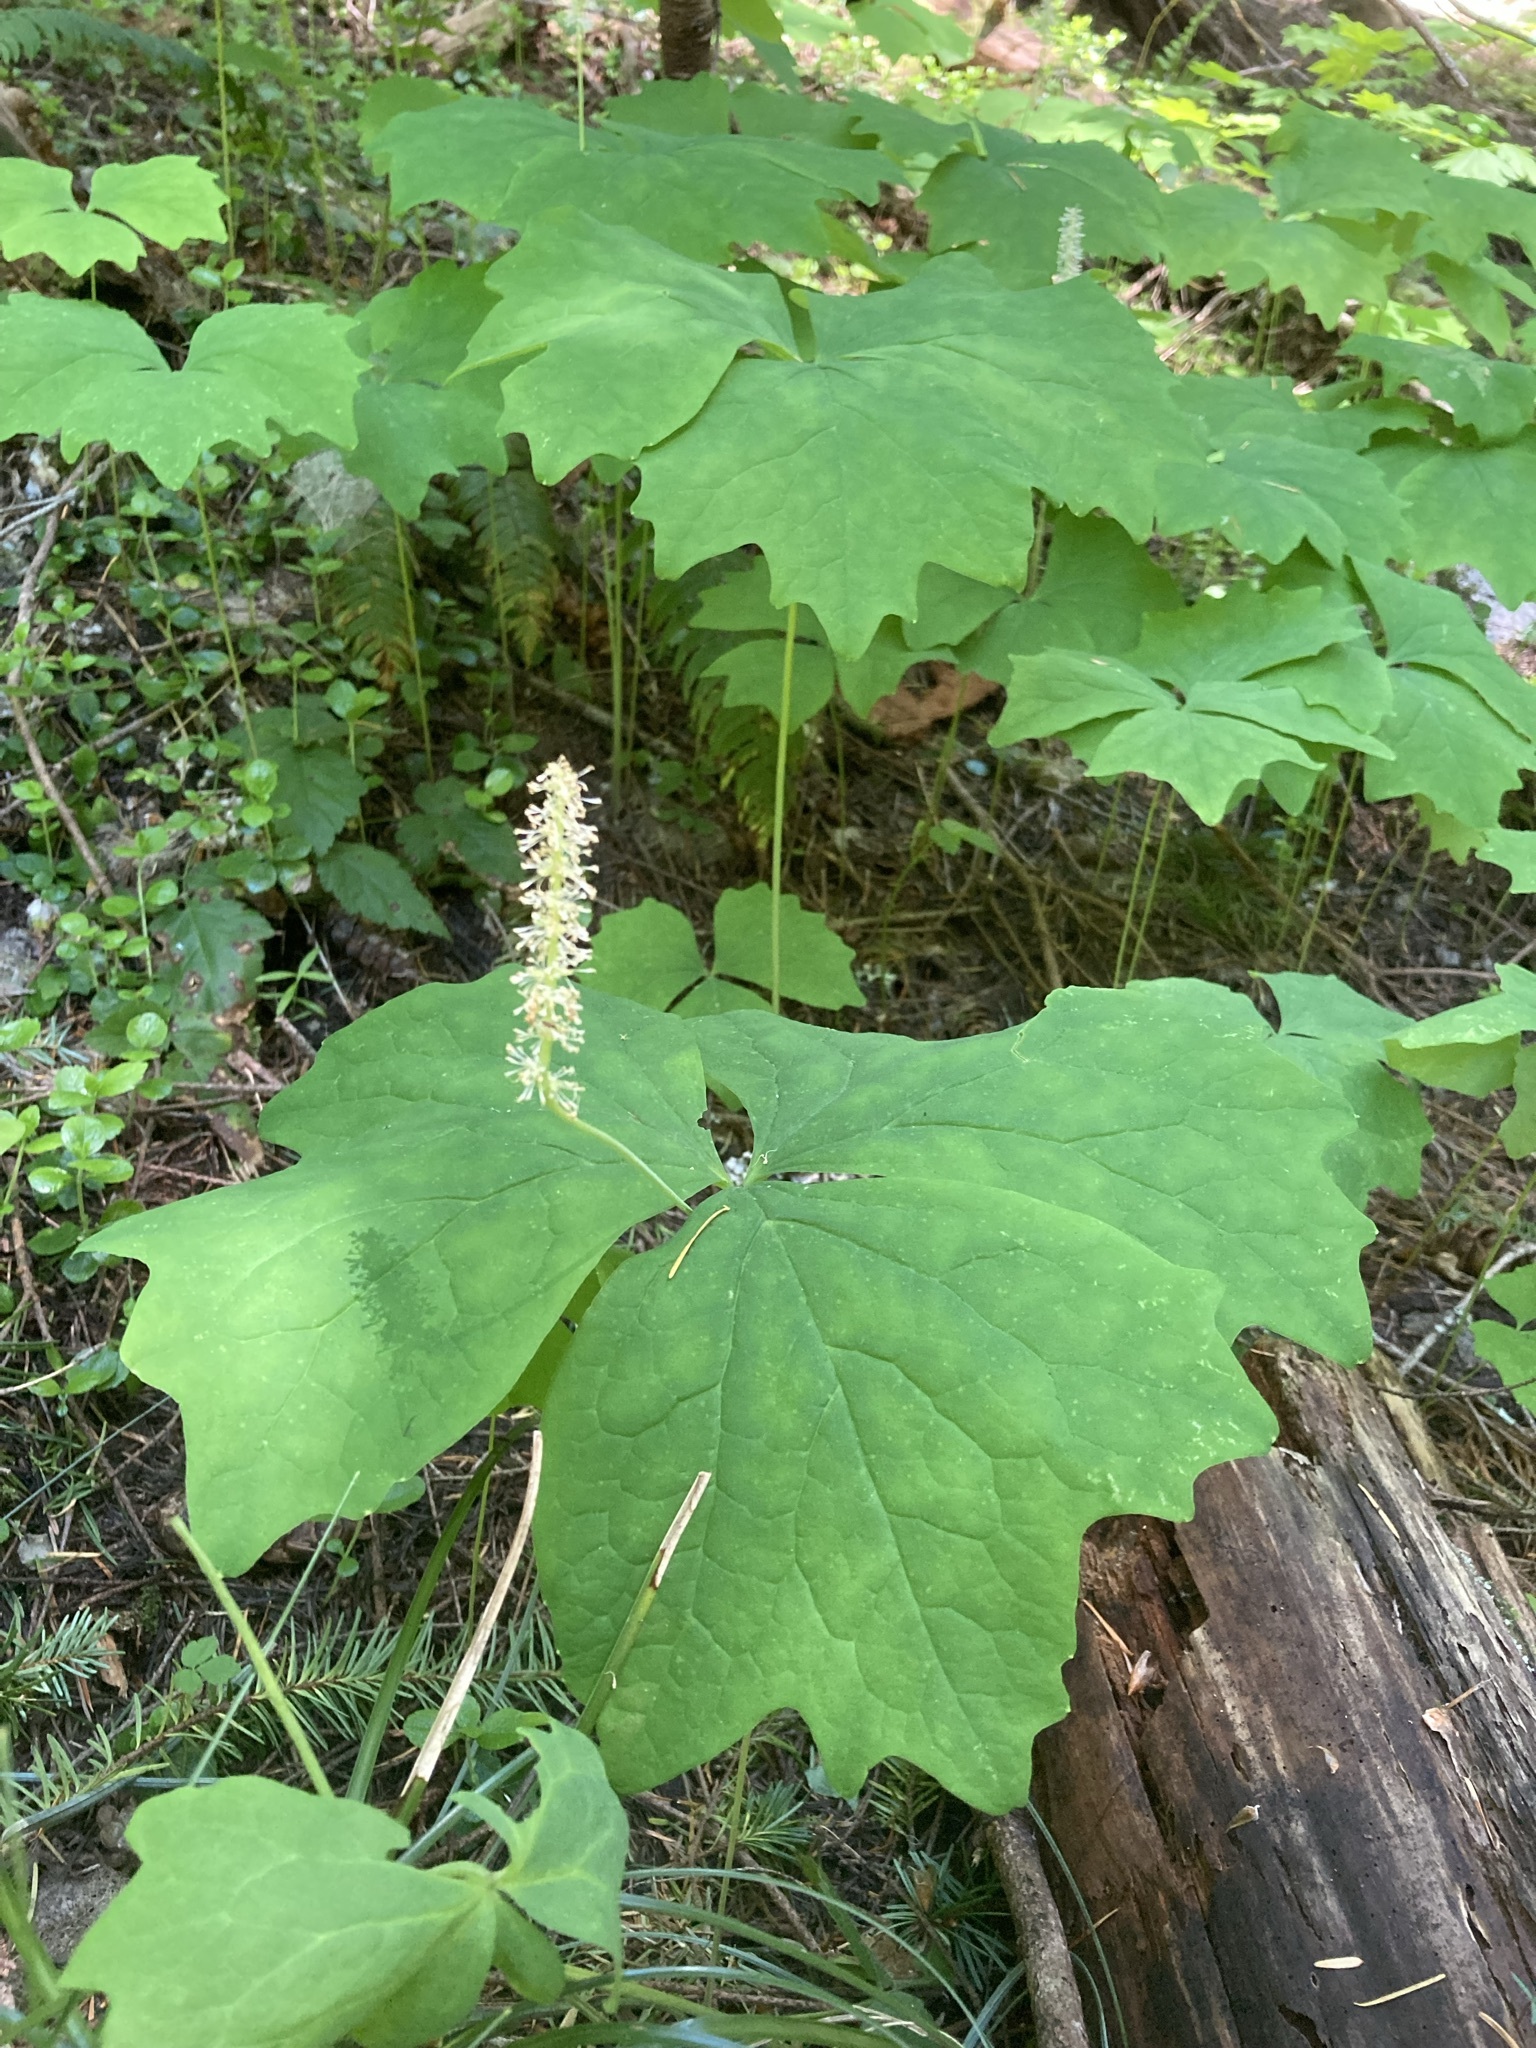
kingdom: Plantae
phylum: Tracheophyta
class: Magnoliopsida
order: Ranunculales
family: Berberidaceae
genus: Achlys
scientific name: Achlys triphylla
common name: Vanilla-leaf
